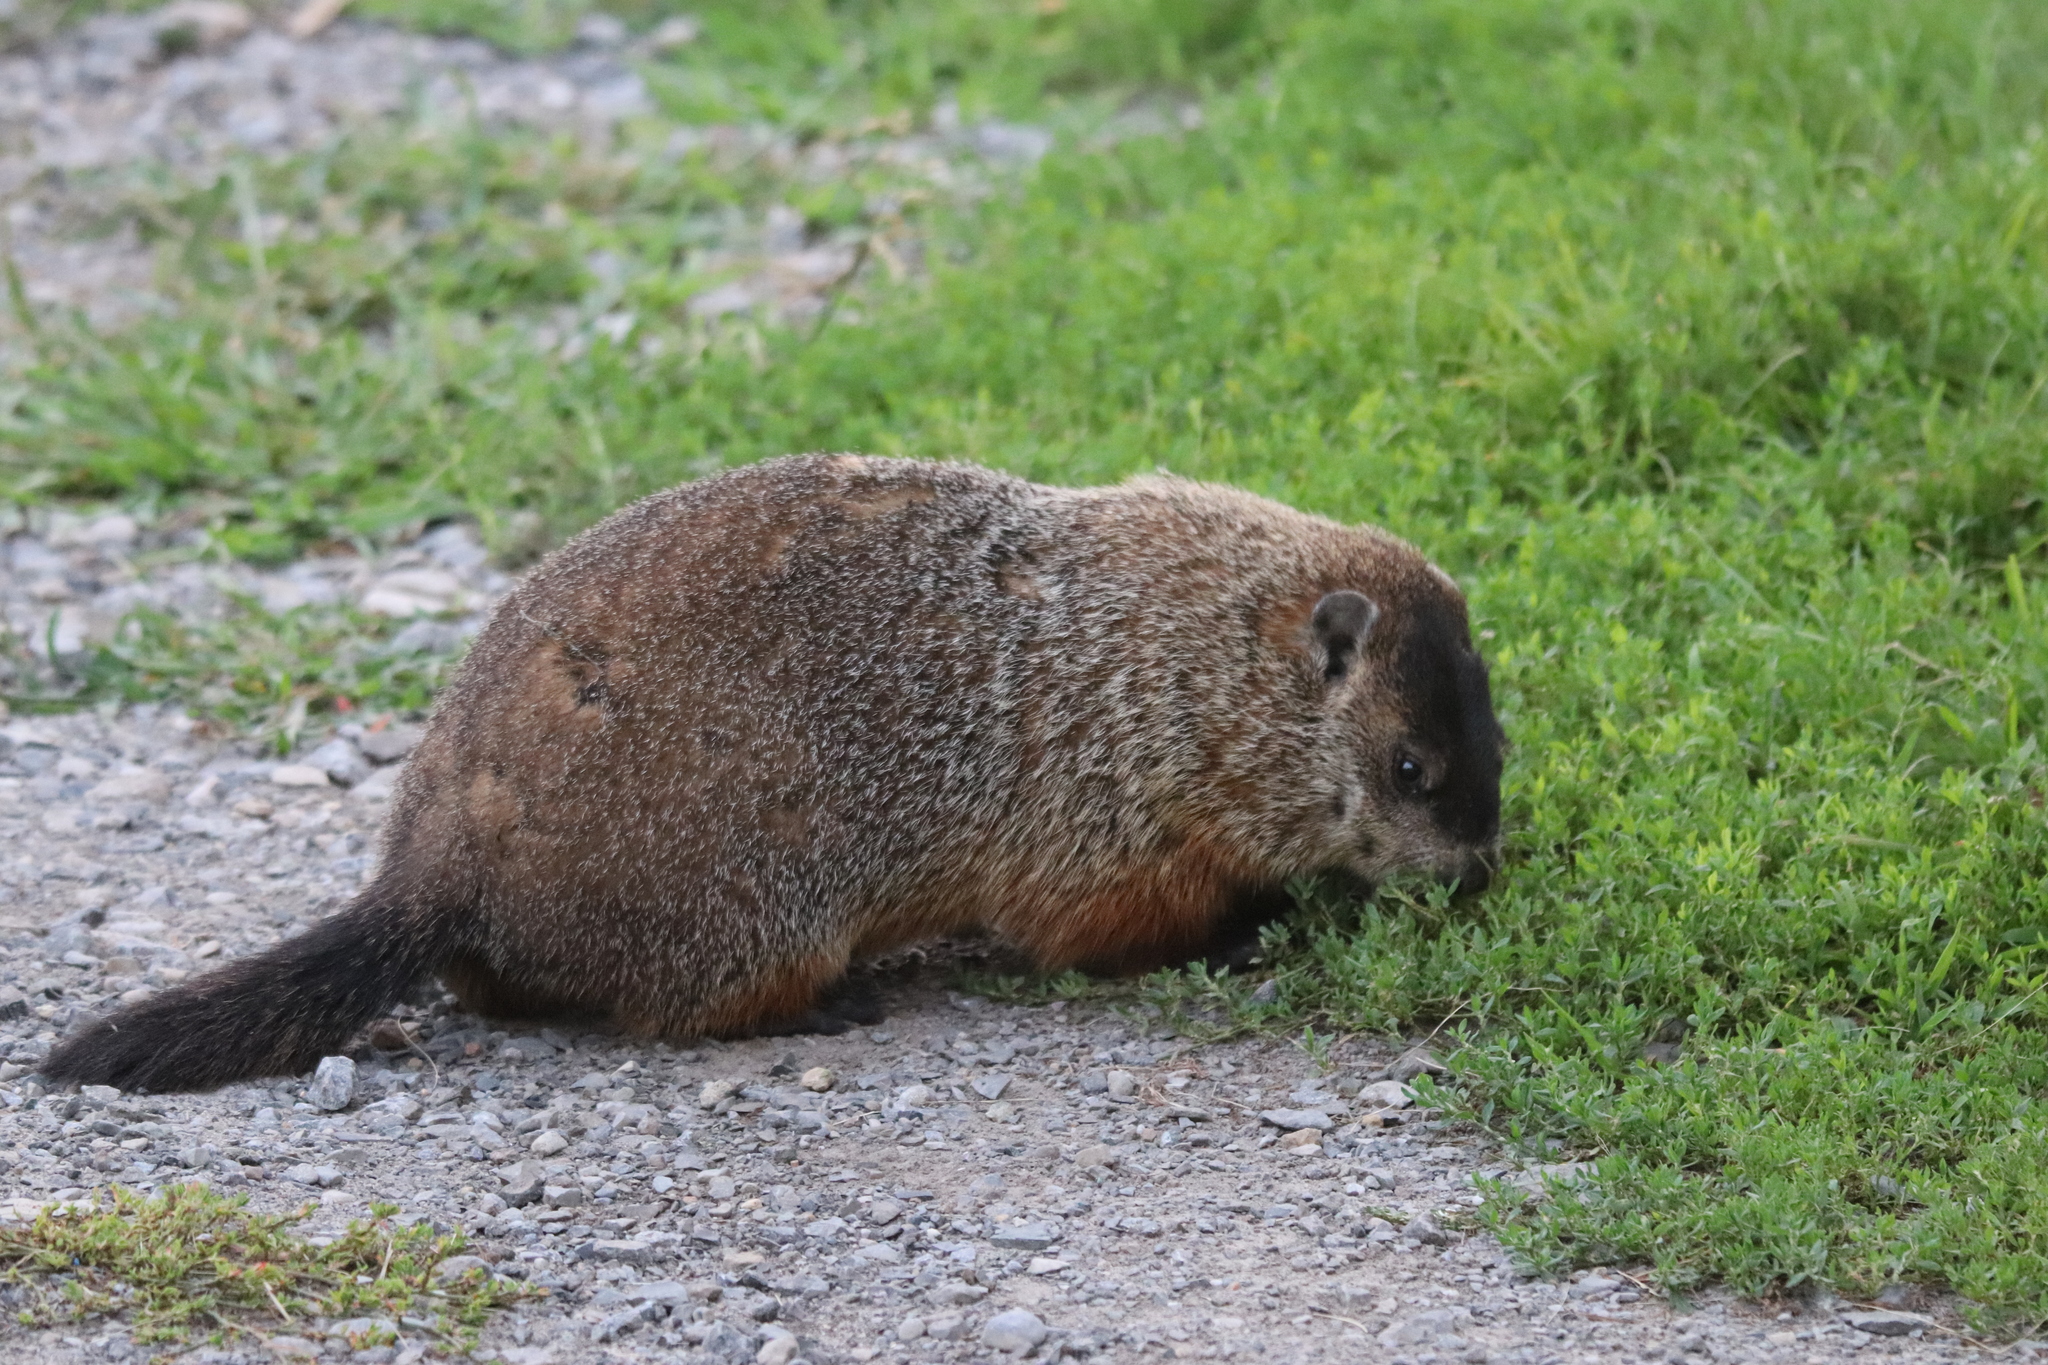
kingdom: Animalia
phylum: Chordata
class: Mammalia
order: Rodentia
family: Sciuridae
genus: Marmota
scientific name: Marmota monax
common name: Groundhog
